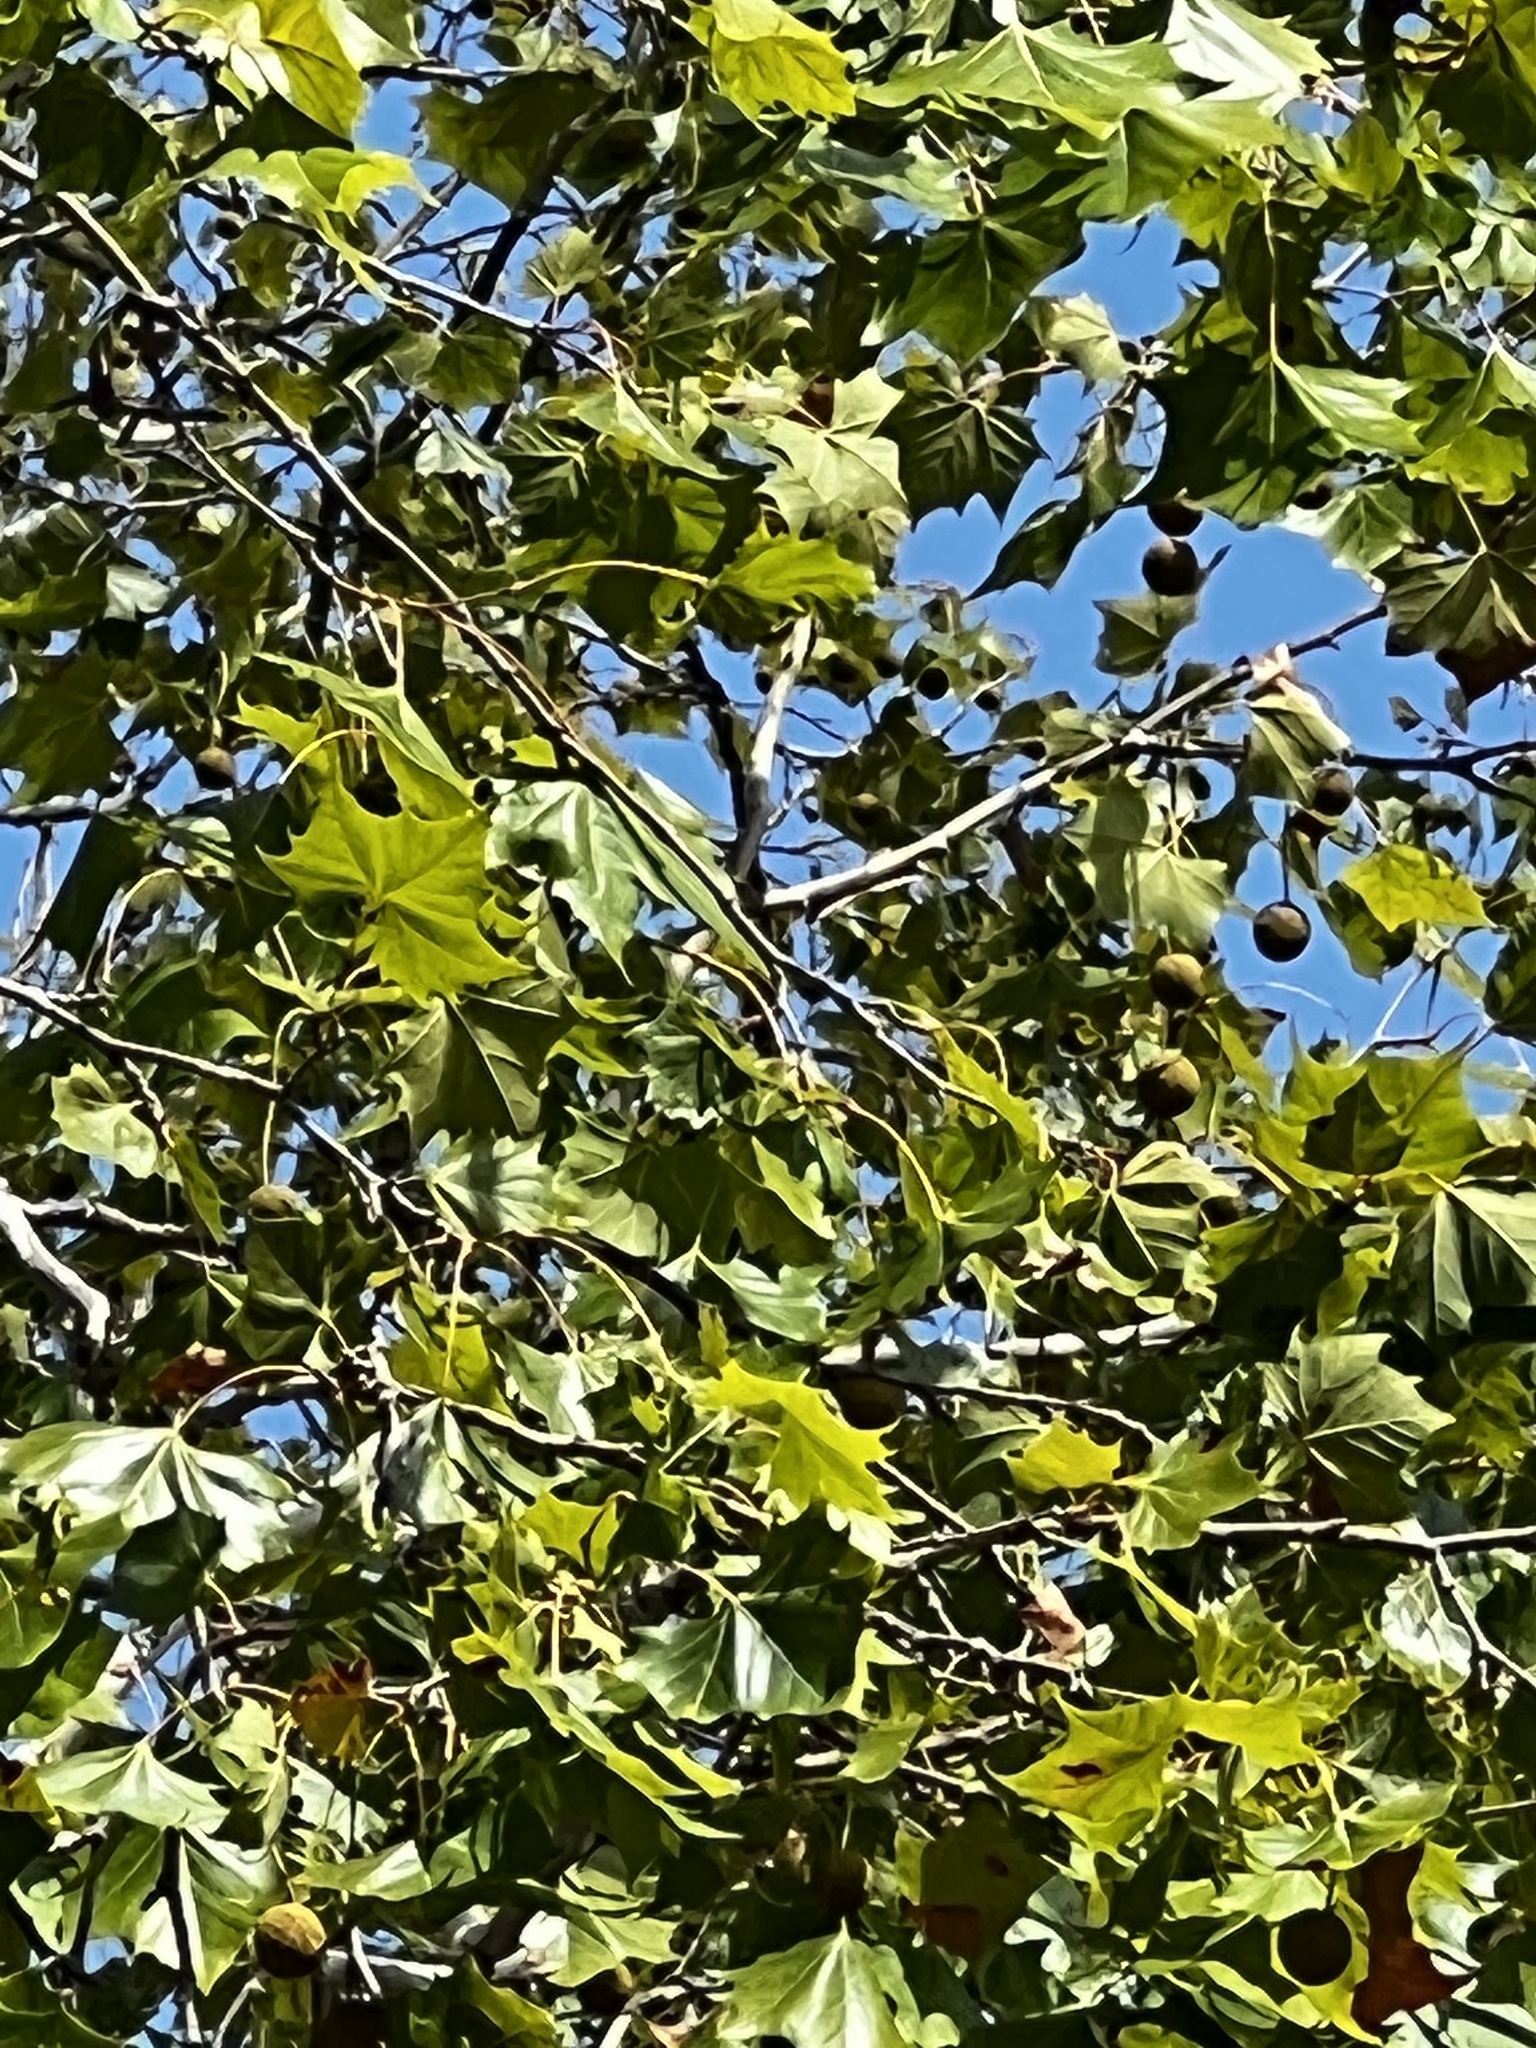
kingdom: Plantae
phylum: Tracheophyta
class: Magnoliopsida
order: Proteales
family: Platanaceae
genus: Platanus
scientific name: Platanus occidentalis
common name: American sycamore
